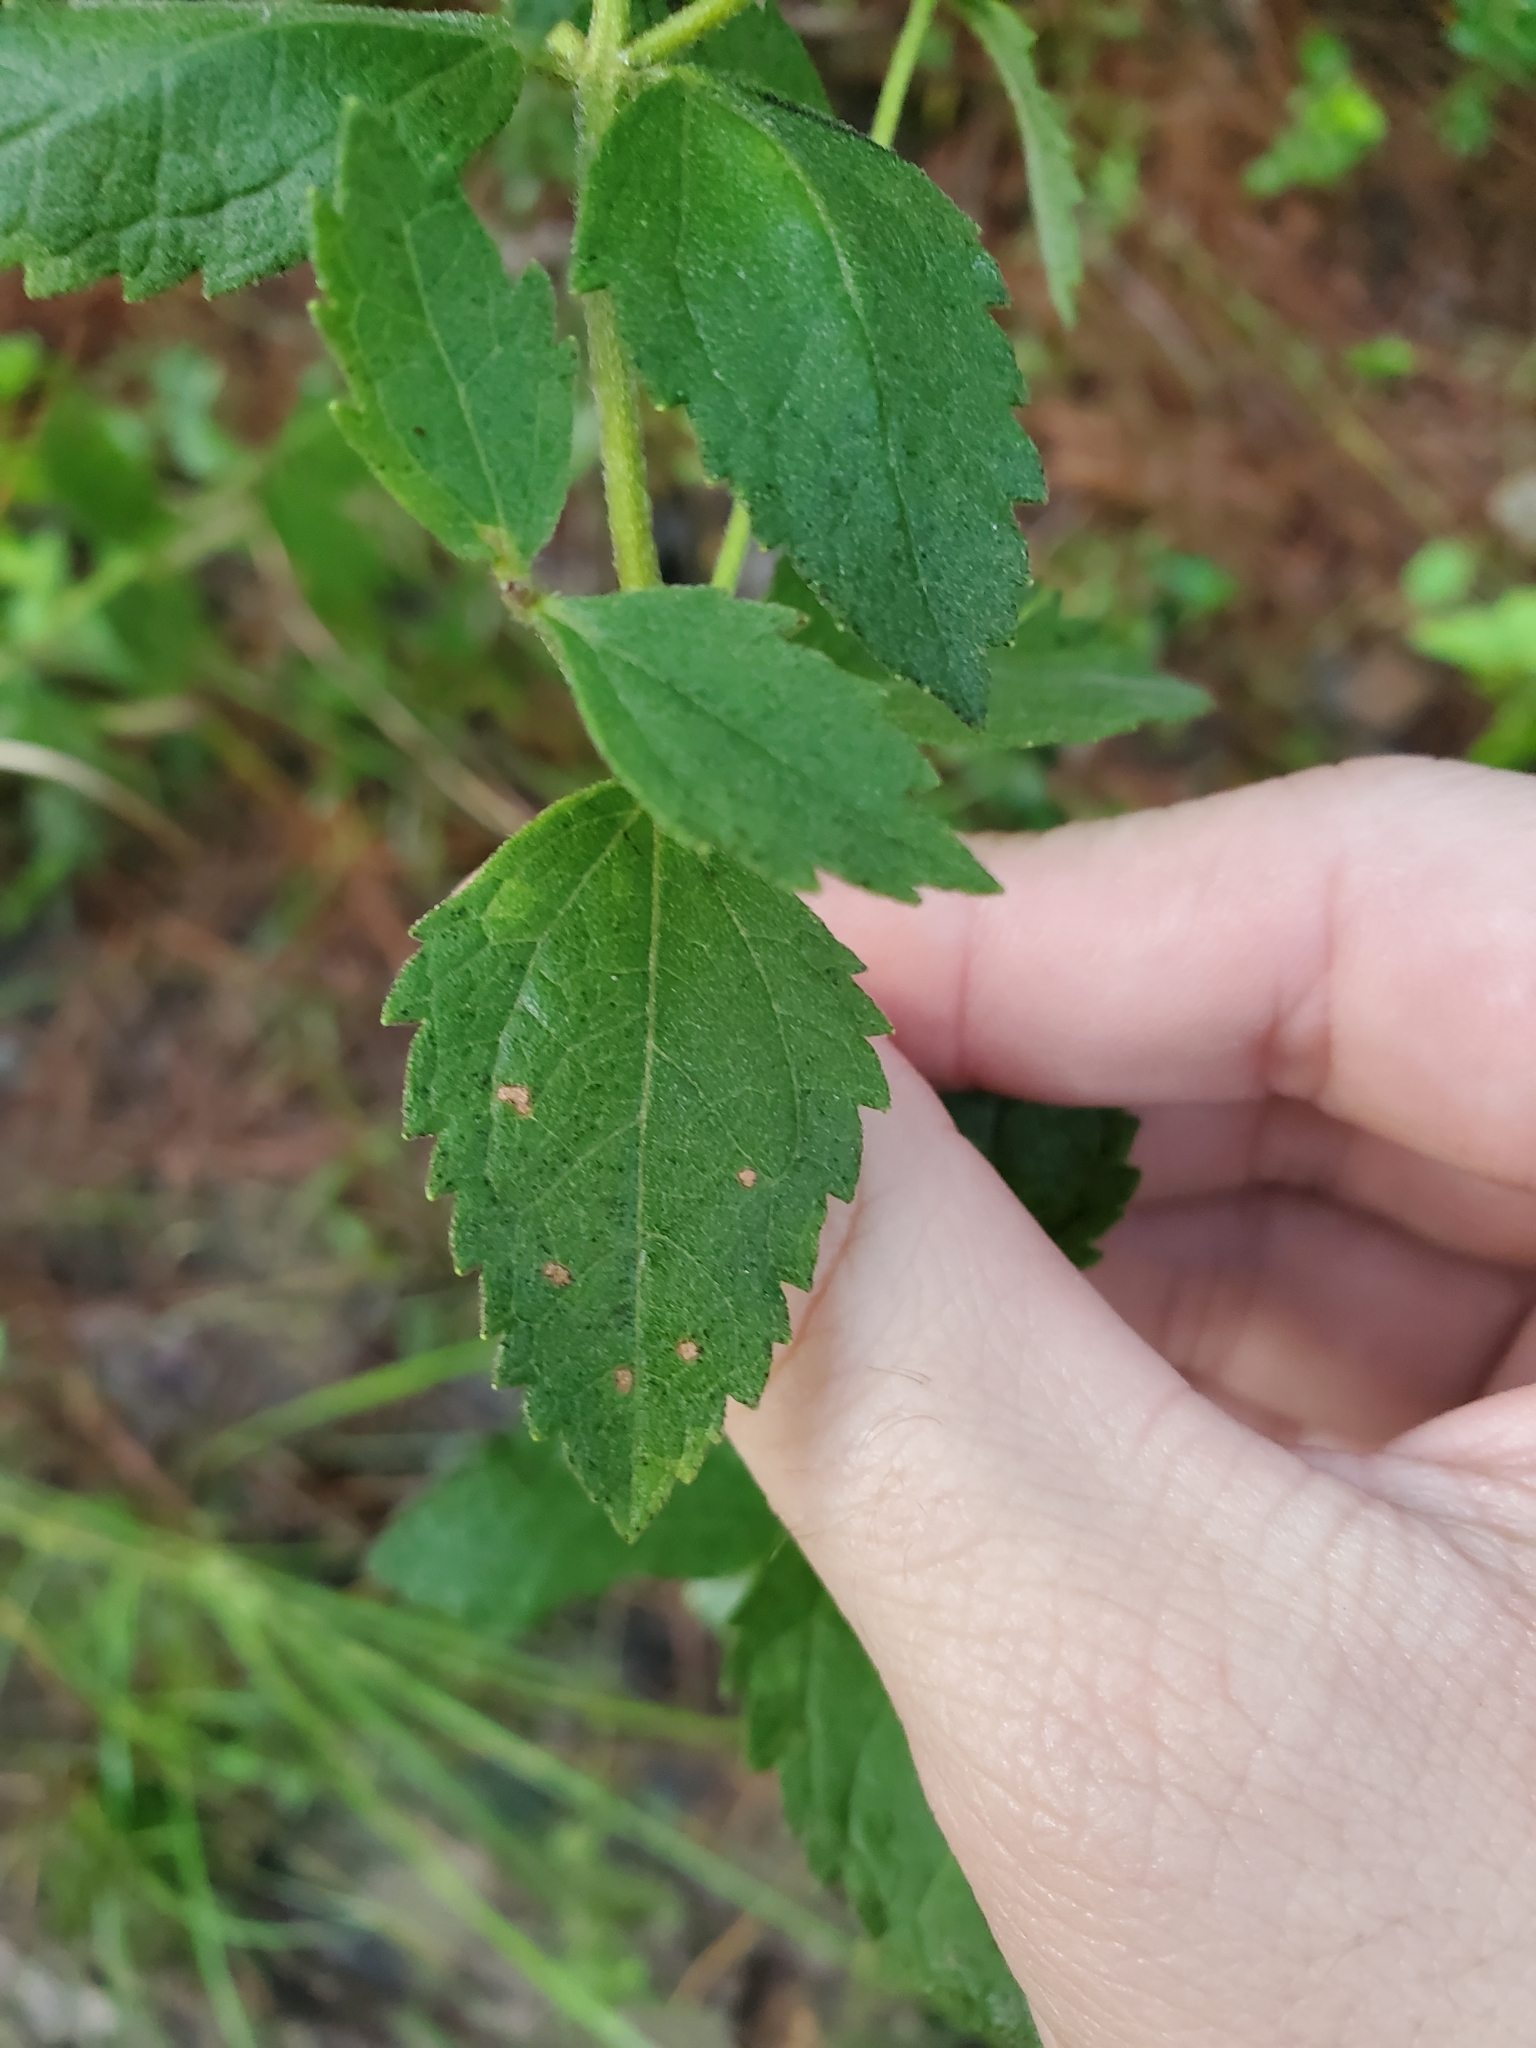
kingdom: Plantae
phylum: Tracheophyta
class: Magnoliopsida
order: Asterales
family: Asteraceae
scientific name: Asteraceae
